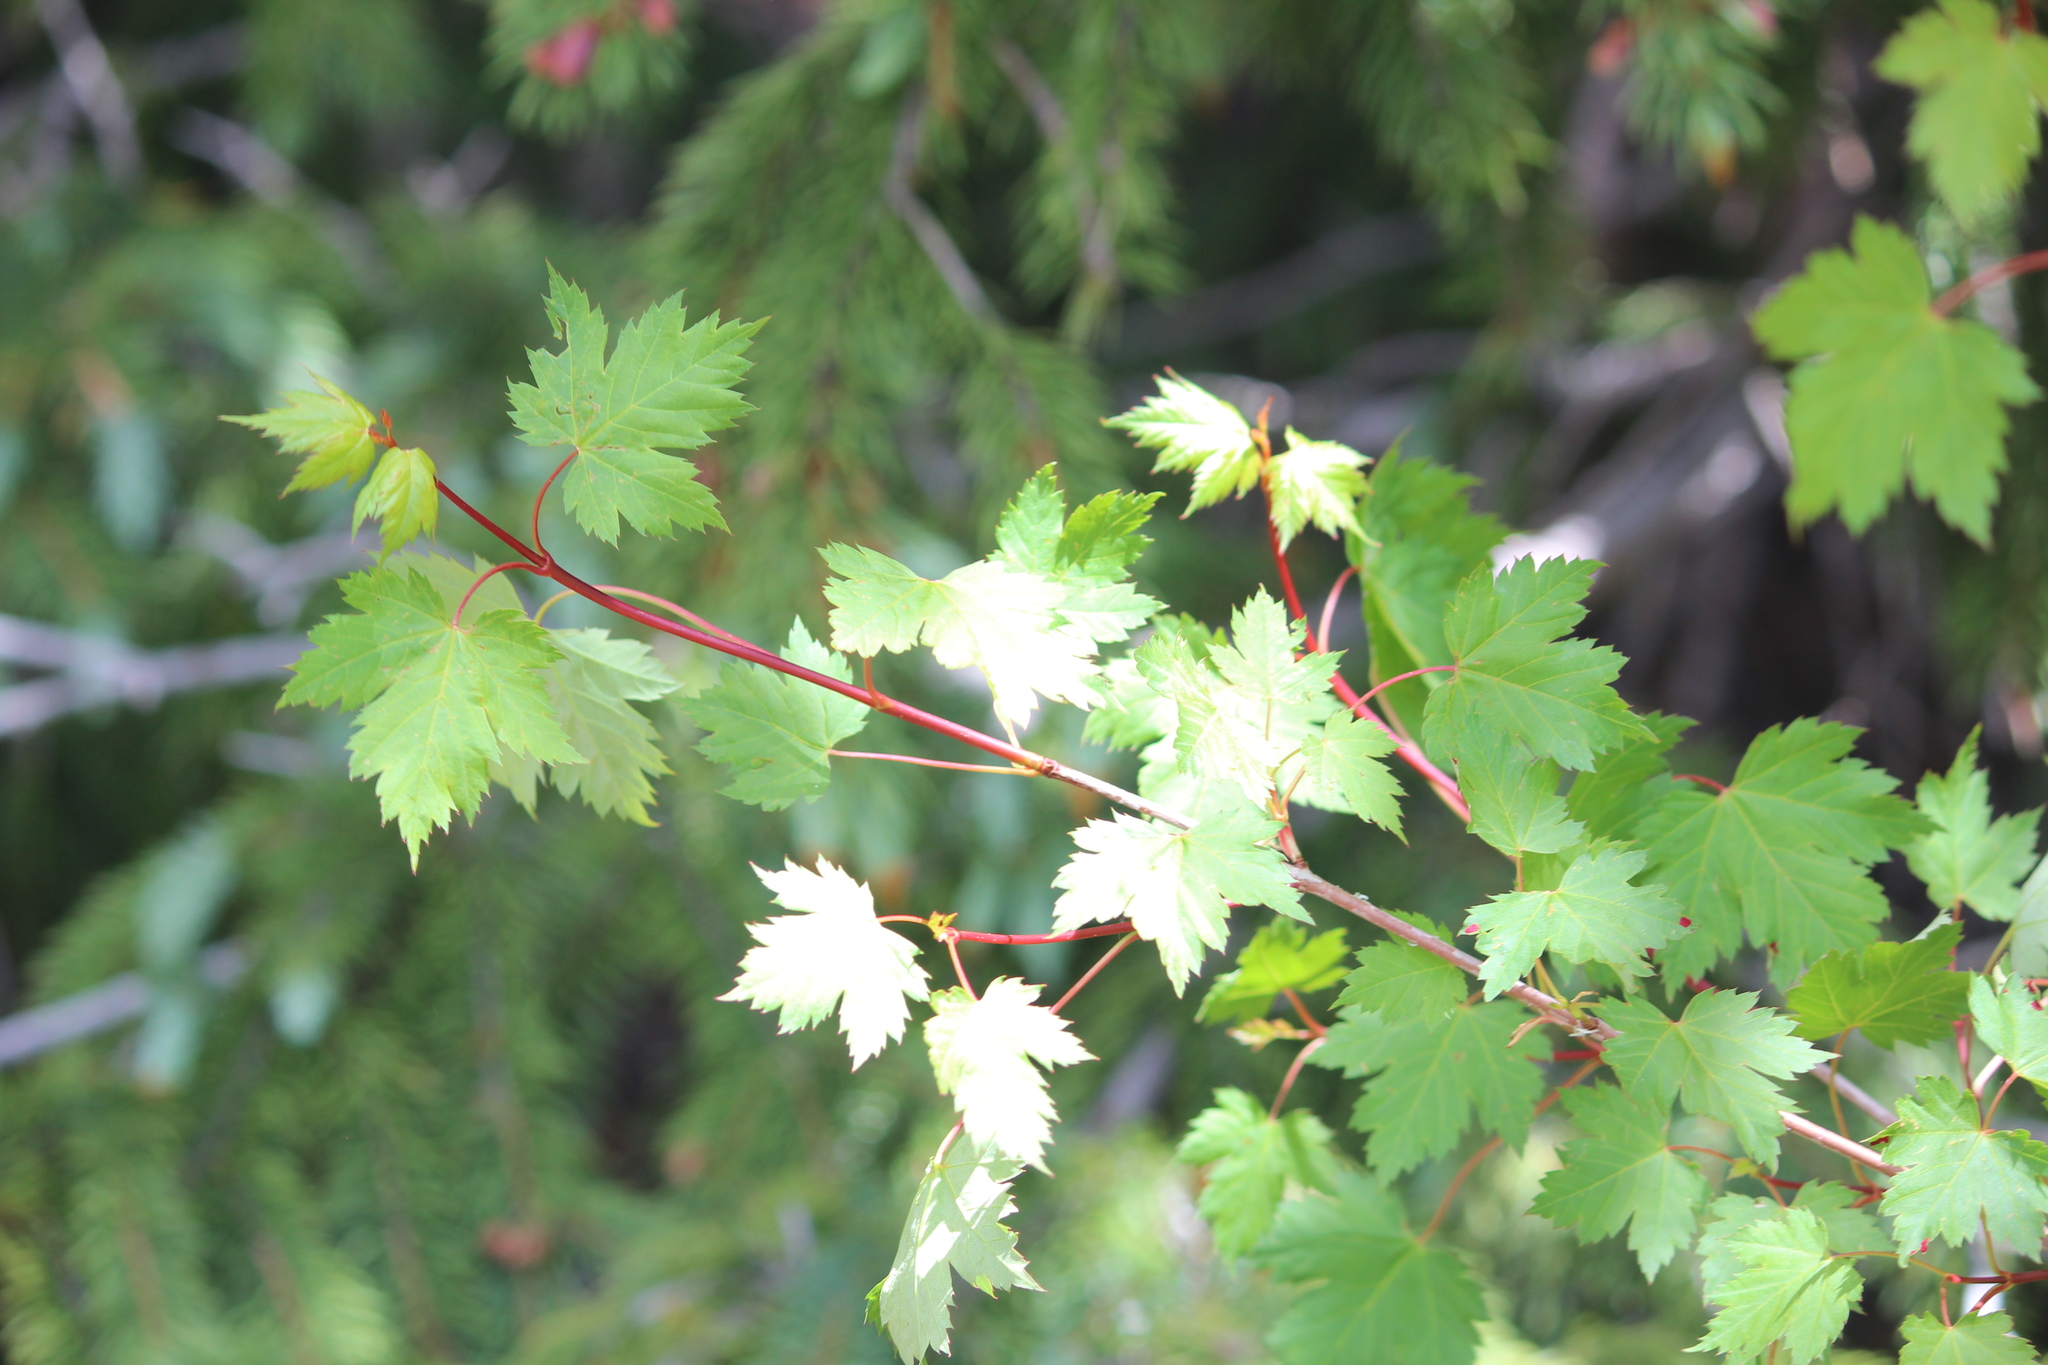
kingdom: Plantae
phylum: Tracheophyta
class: Magnoliopsida
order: Sapindales
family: Sapindaceae
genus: Acer
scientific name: Acer glabrum
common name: Rocky mountain maple
